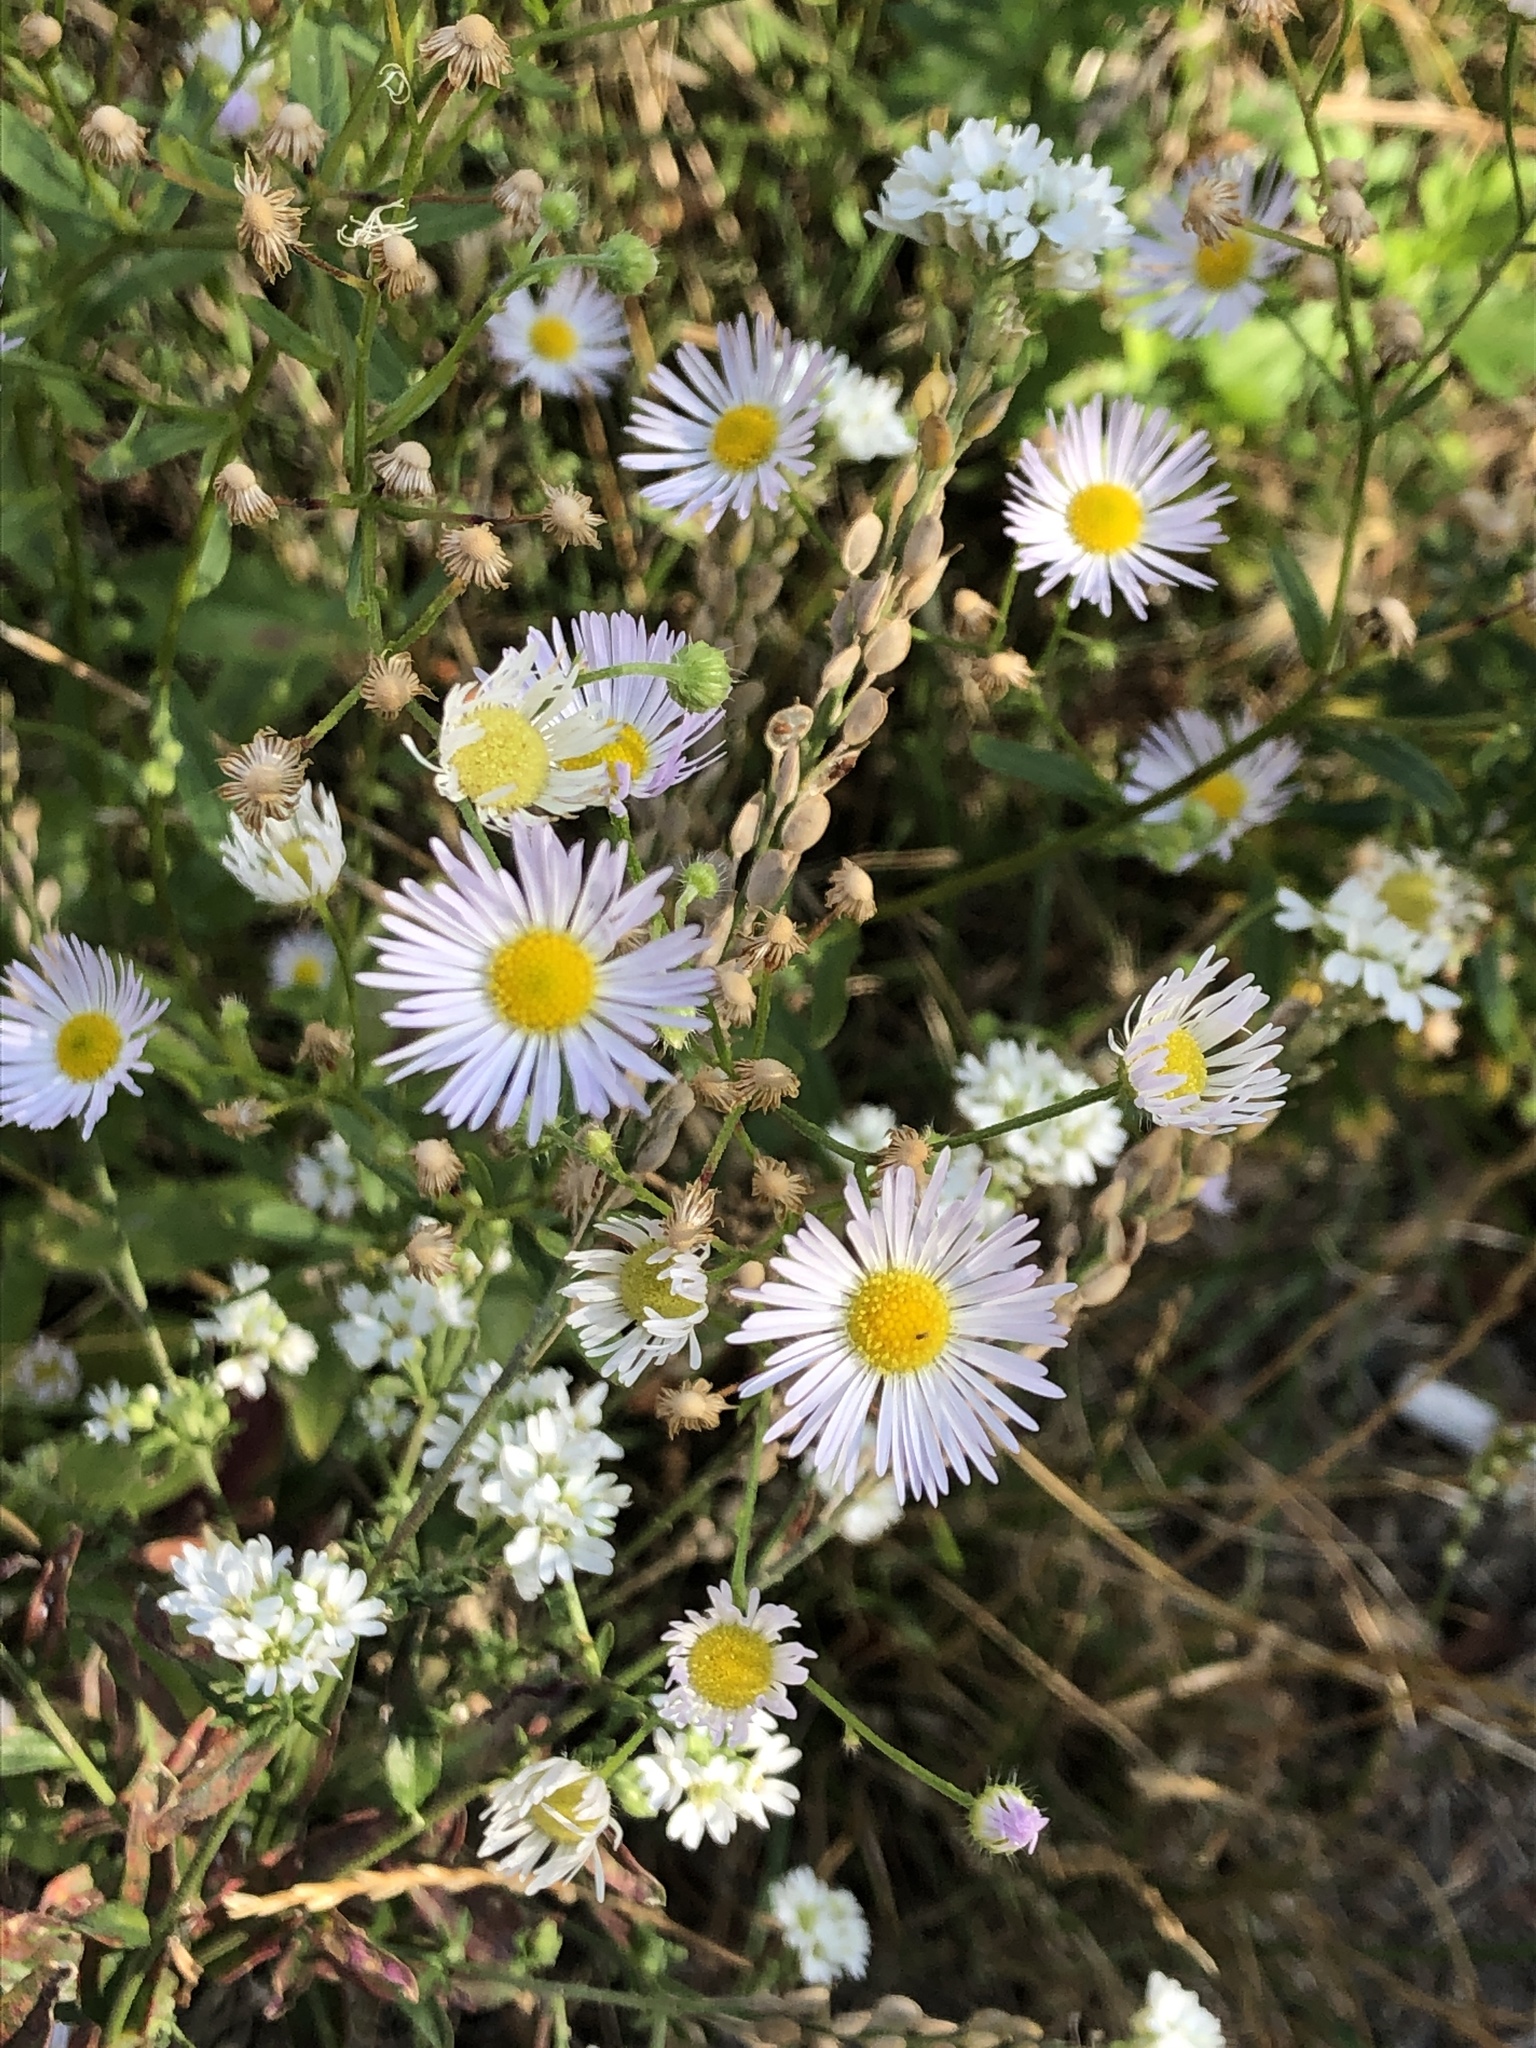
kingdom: Plantae
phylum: Tracheophyta
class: Magnoliopsida
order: Asterales
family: Asteraceae
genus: Erigeron
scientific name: Erigeron annuus
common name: Tall fleabane
